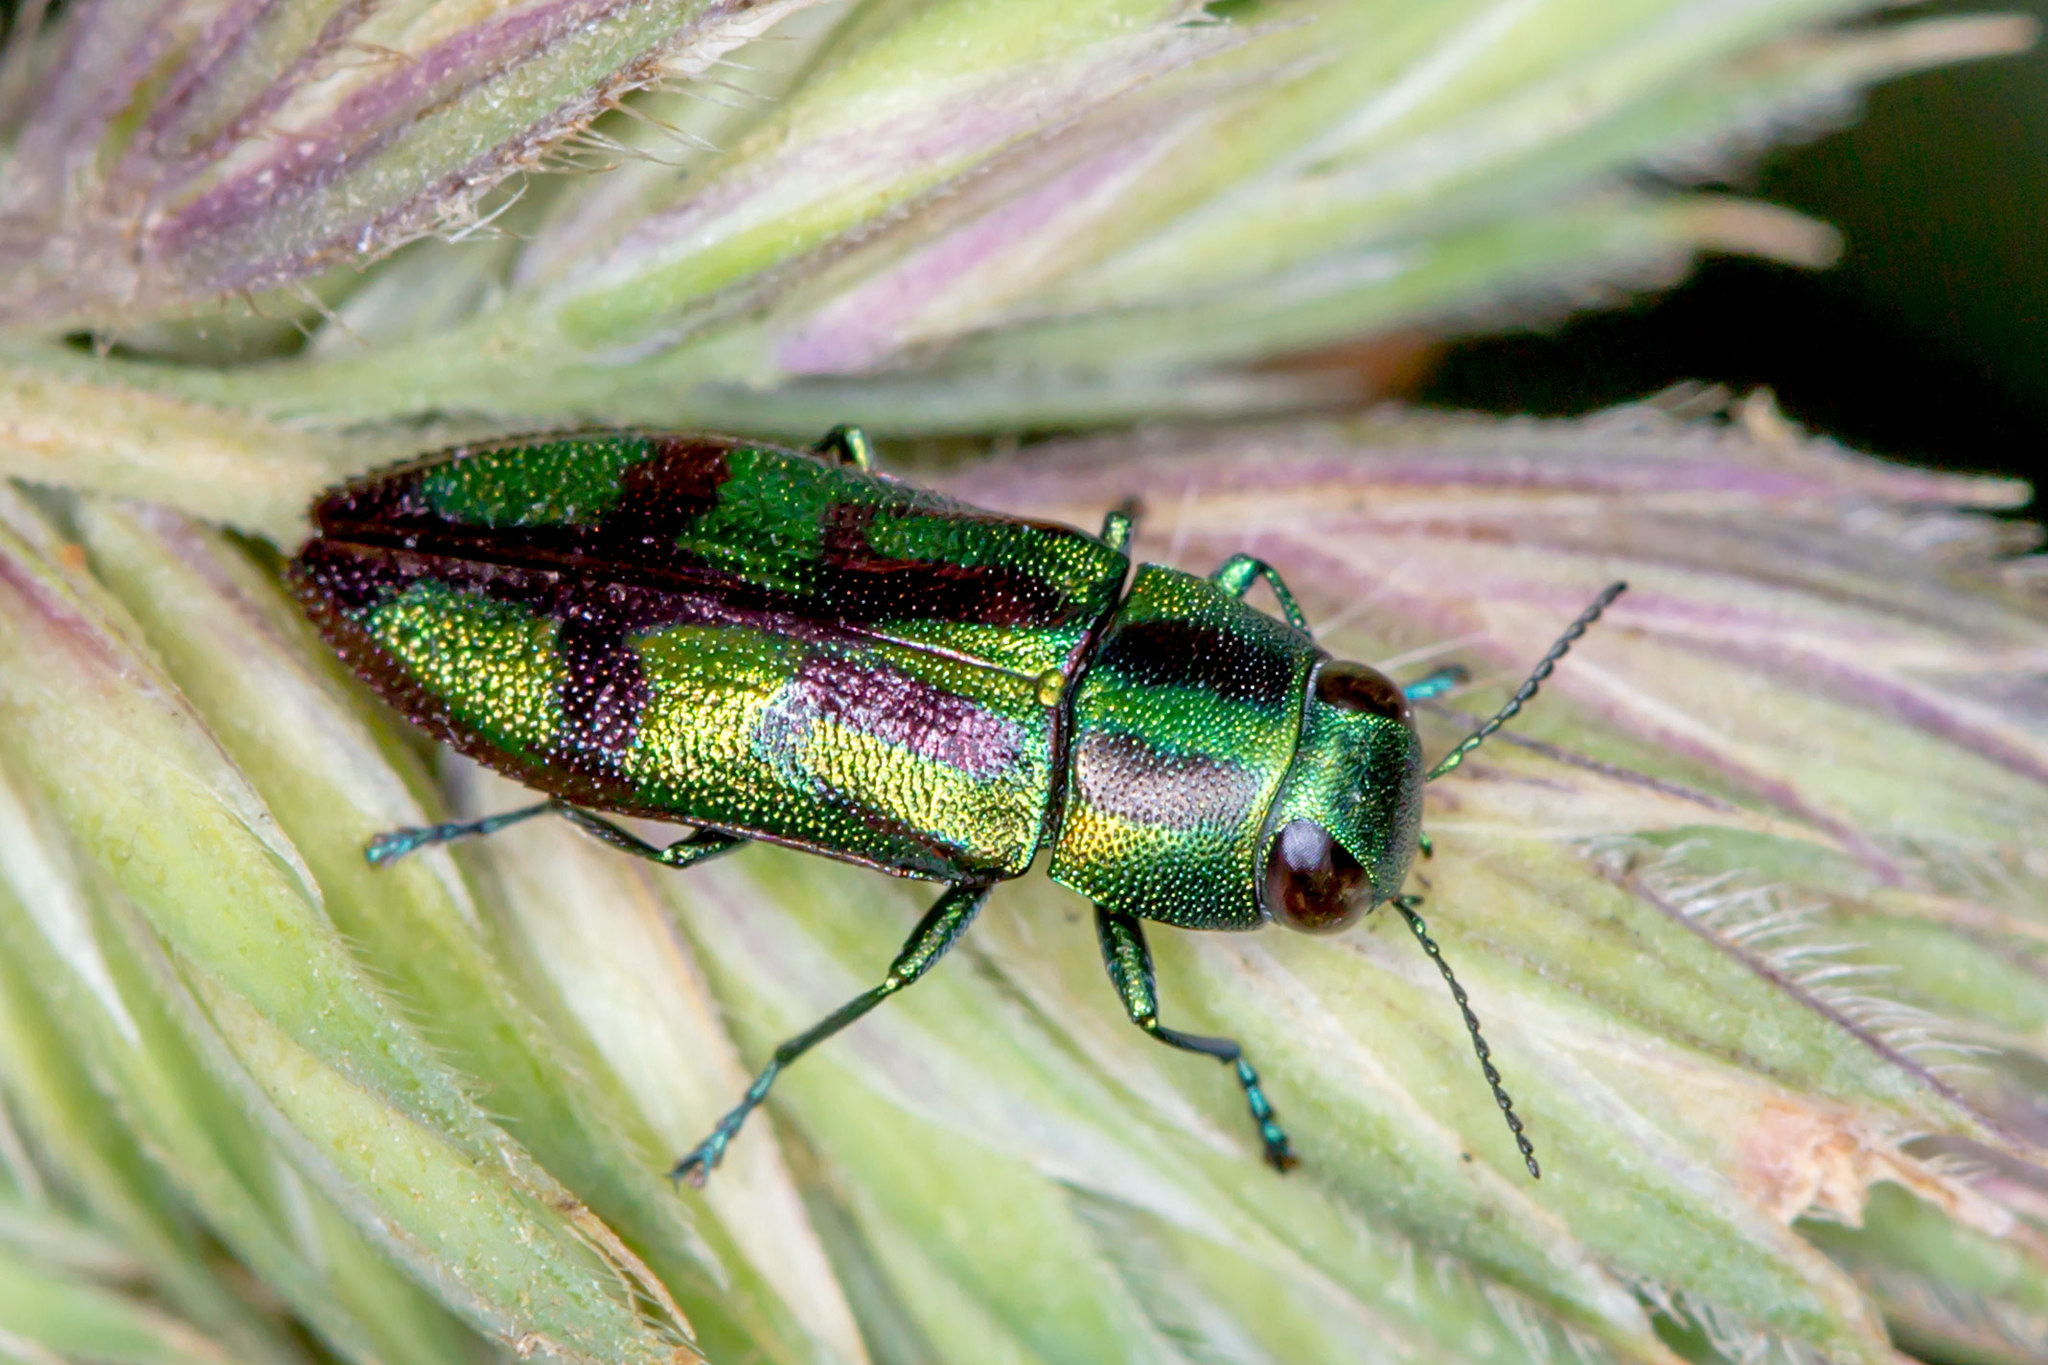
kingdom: Animalia
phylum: Arthropoda
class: Insecta
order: Coleoptera
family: Buprestidae
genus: Melobasis
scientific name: Melobasis purpurascens
